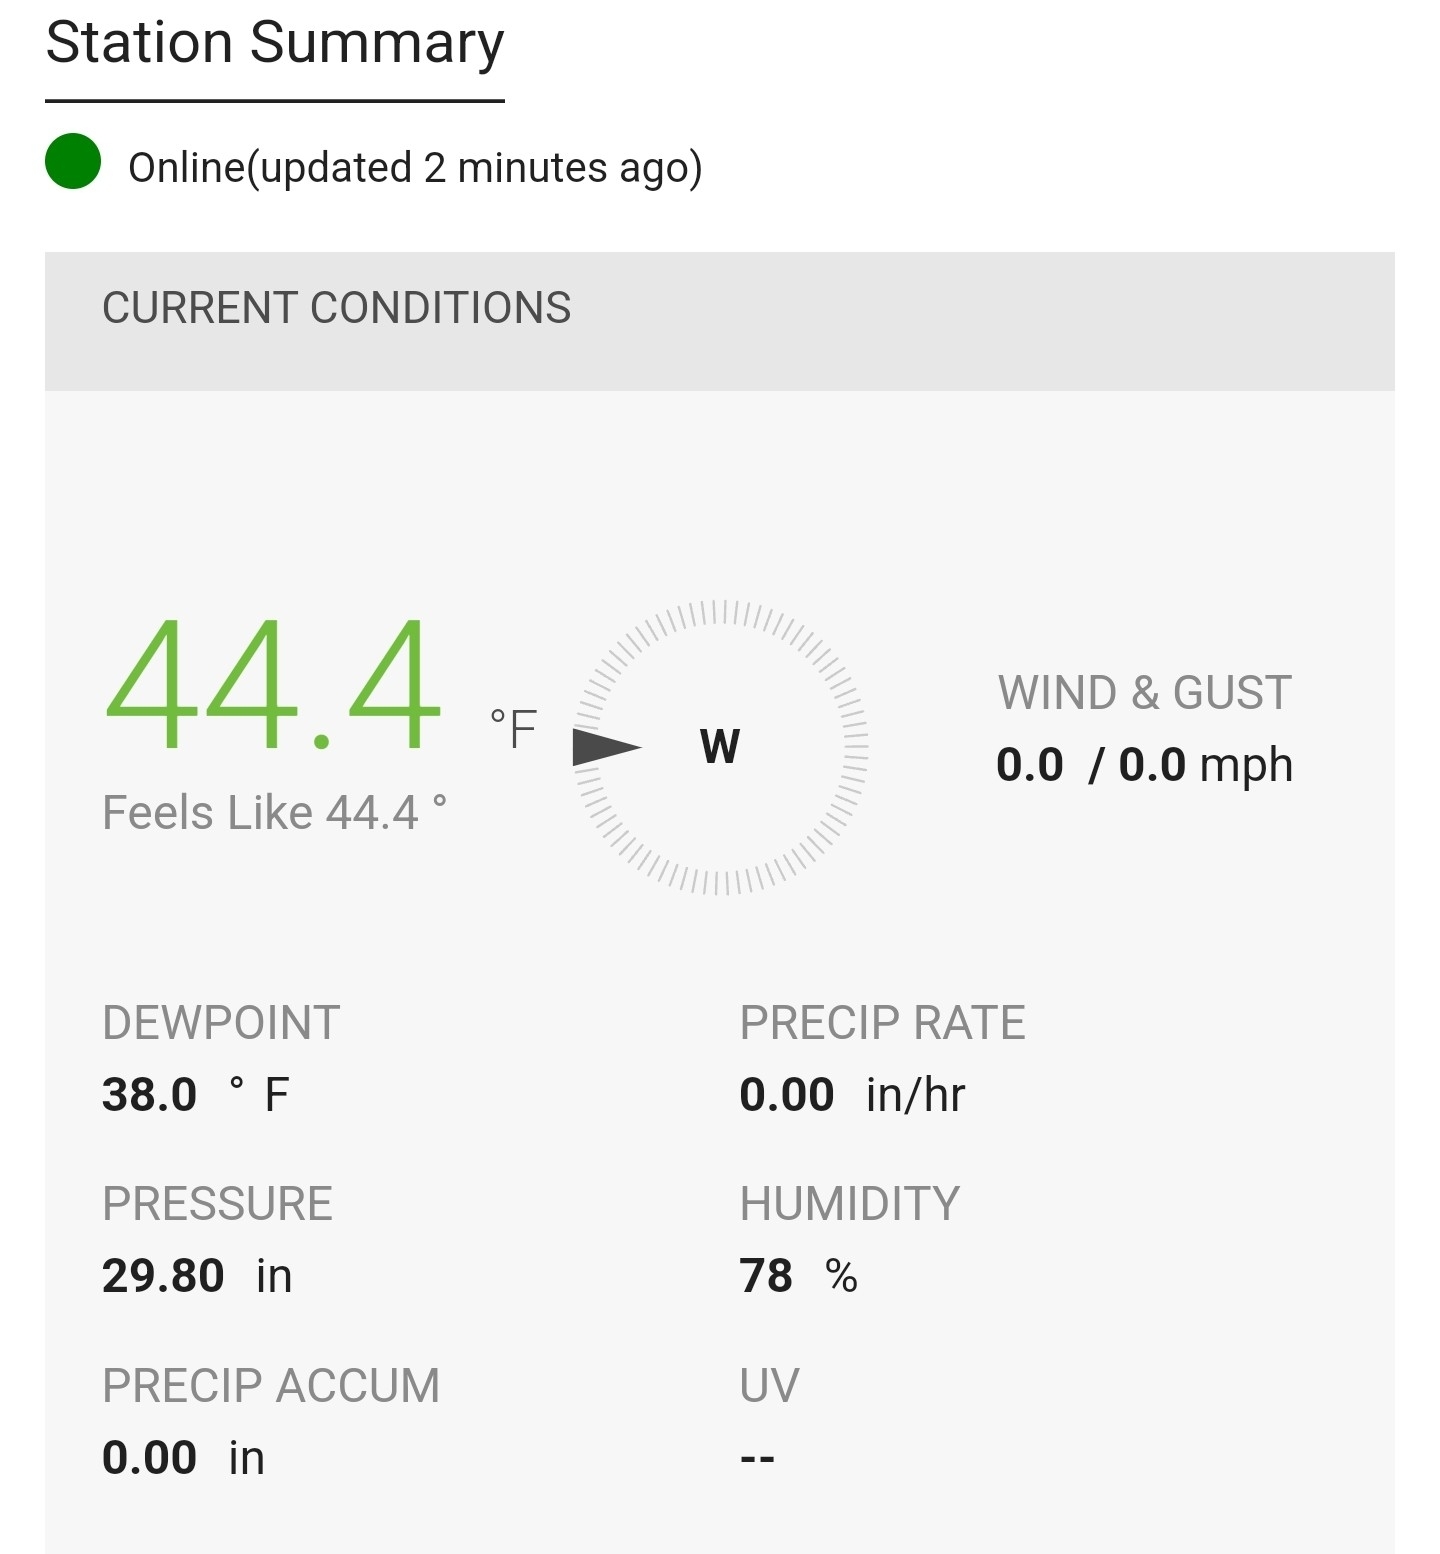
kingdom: Animalia
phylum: Arthropoda
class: Insecta
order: Diptera
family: Syrphidae
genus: Scaeva
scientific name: Scaeva affinis
